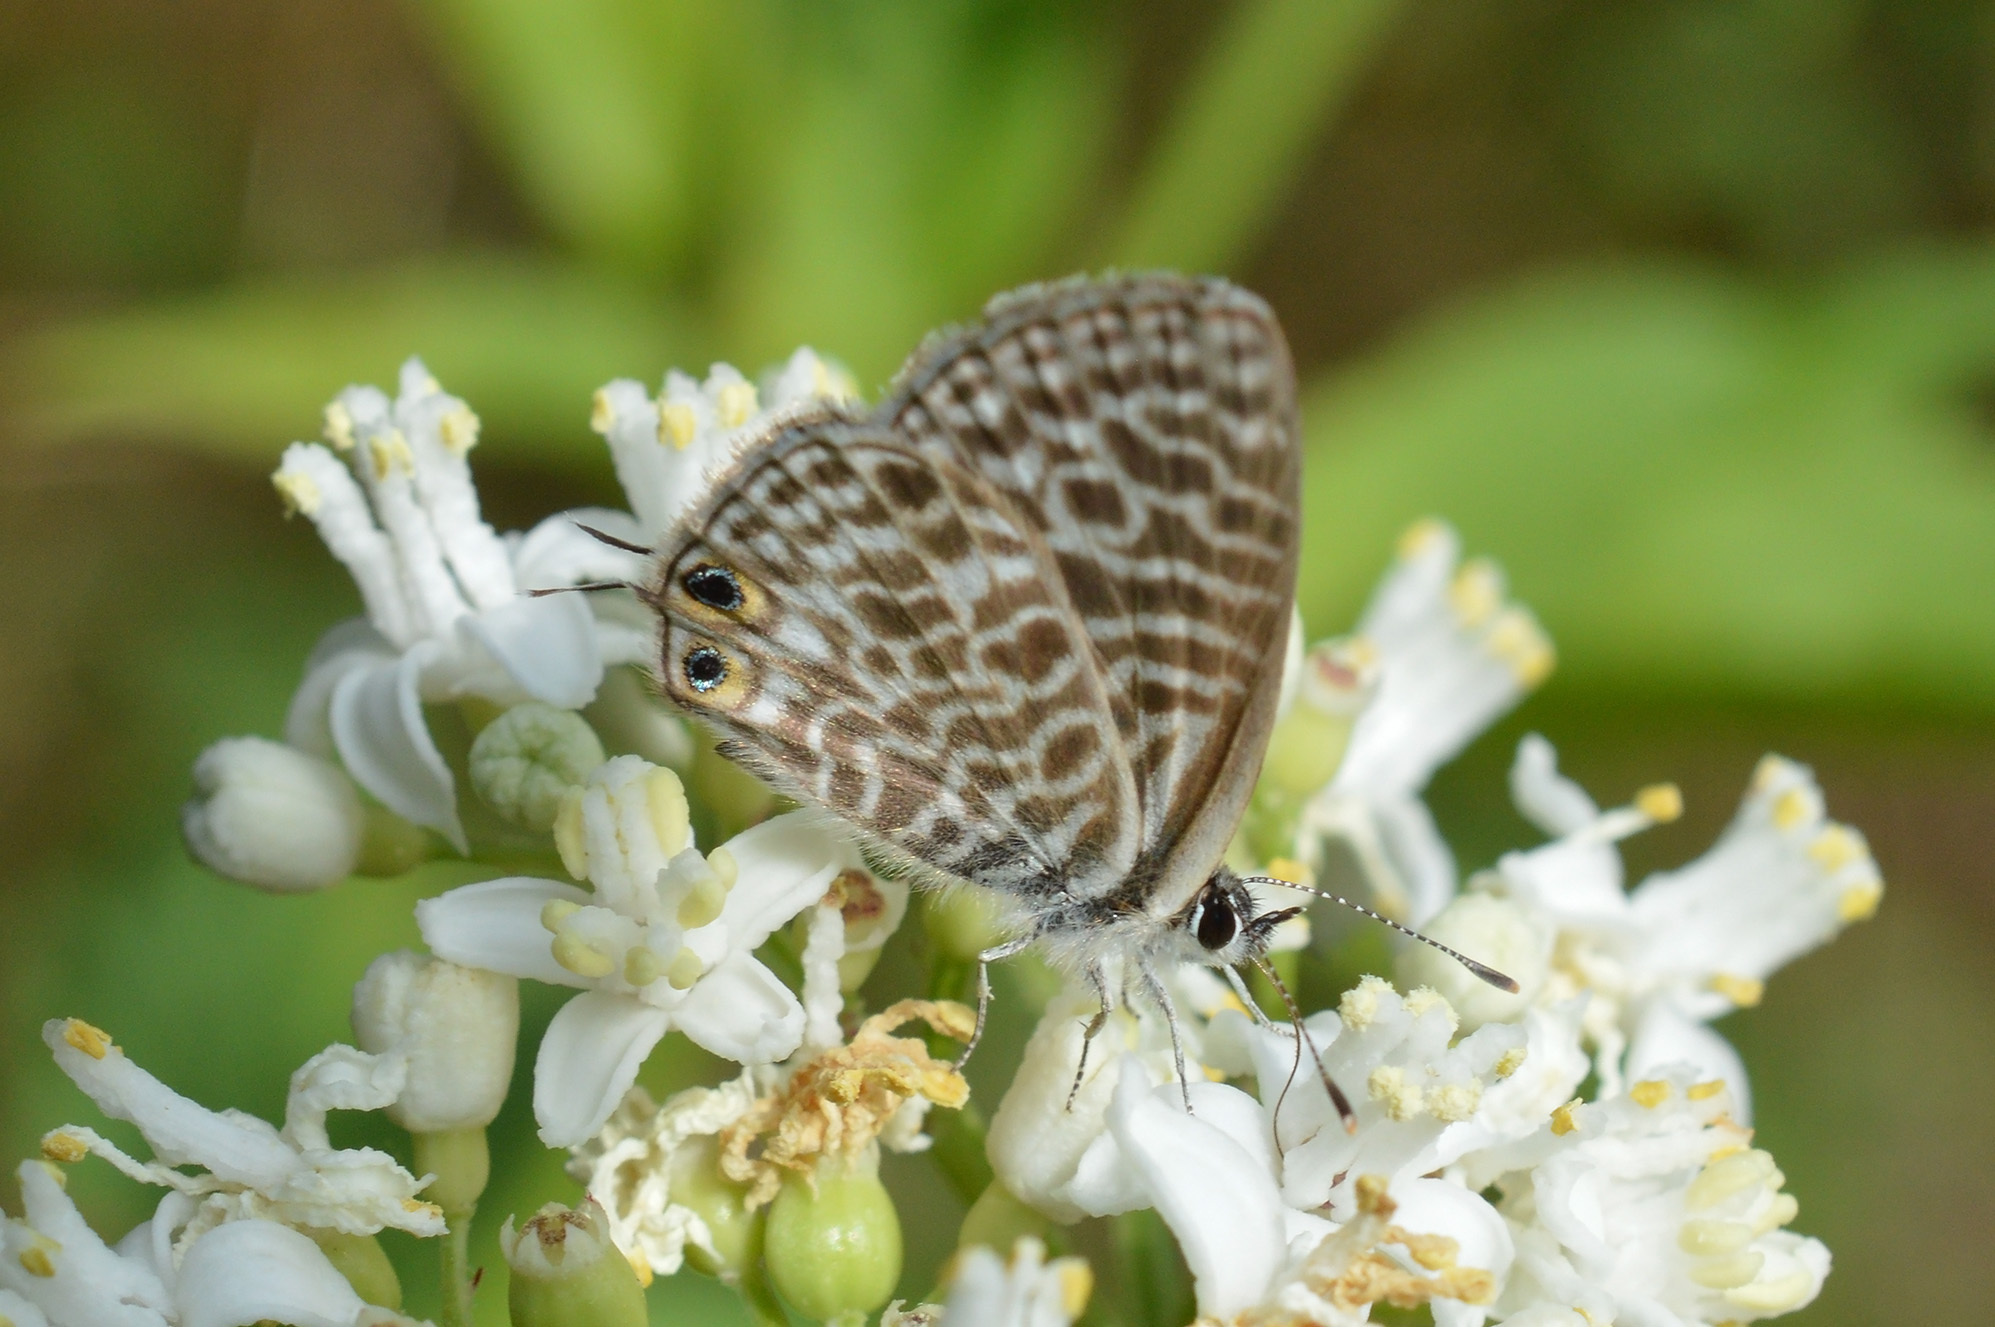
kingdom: Animalia
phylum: Arthropoda
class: Insecta
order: Lepidoptera
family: Lycaenidae
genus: Leptotes
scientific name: Leptotes pirithous
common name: Lang's short-tailed blue
